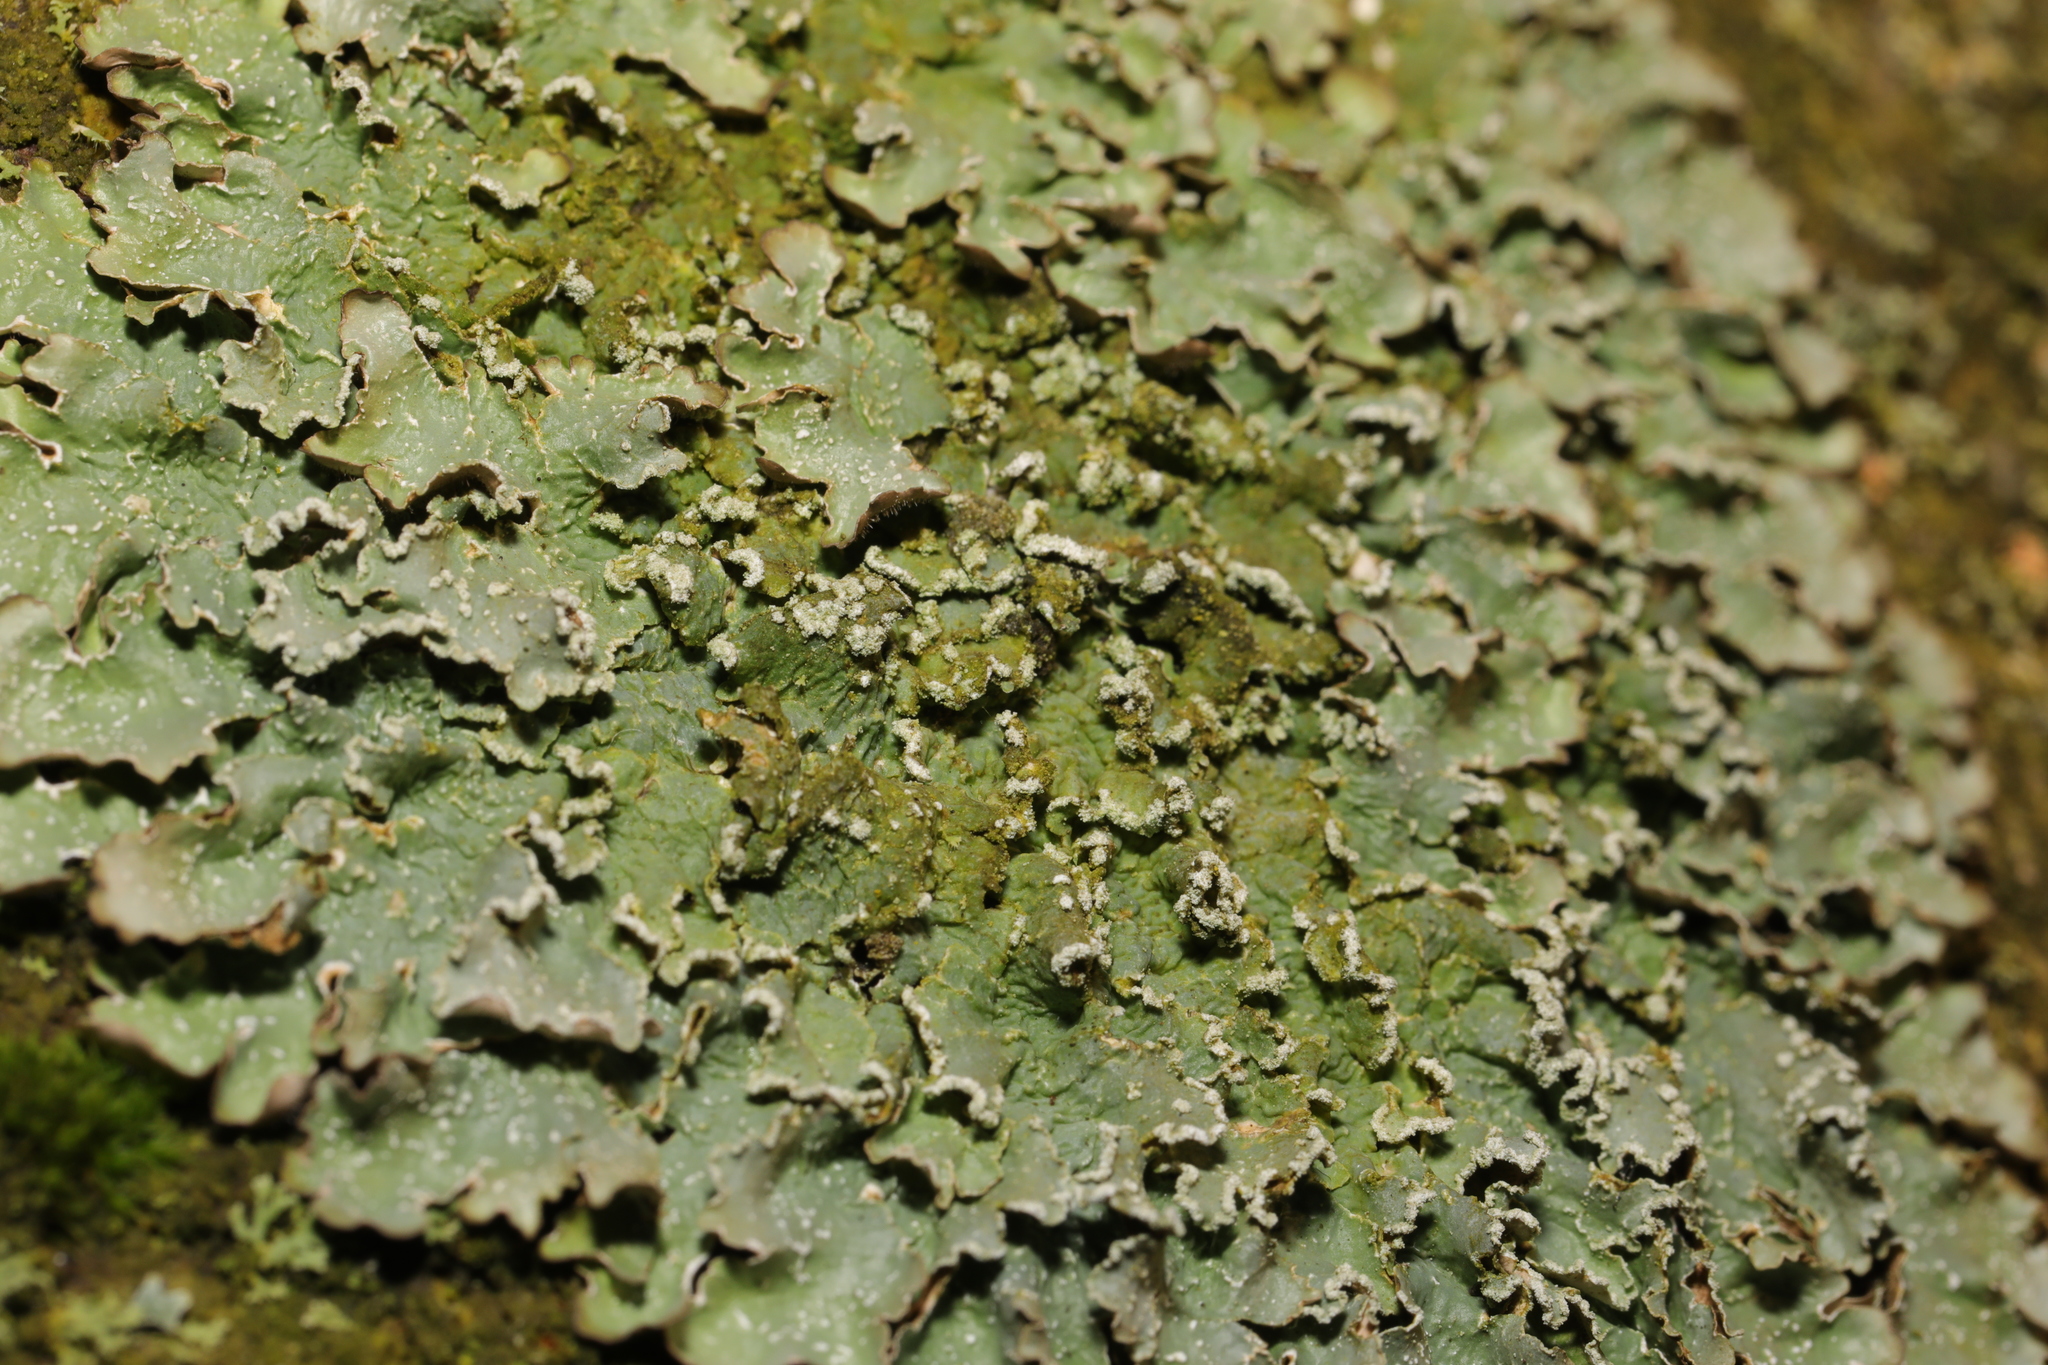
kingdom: Fungi
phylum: Ascomycota
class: Lecanoromycetes
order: Lecanorales
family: Parmeliaceae
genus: Punctelia
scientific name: Punctelia jeckeri
